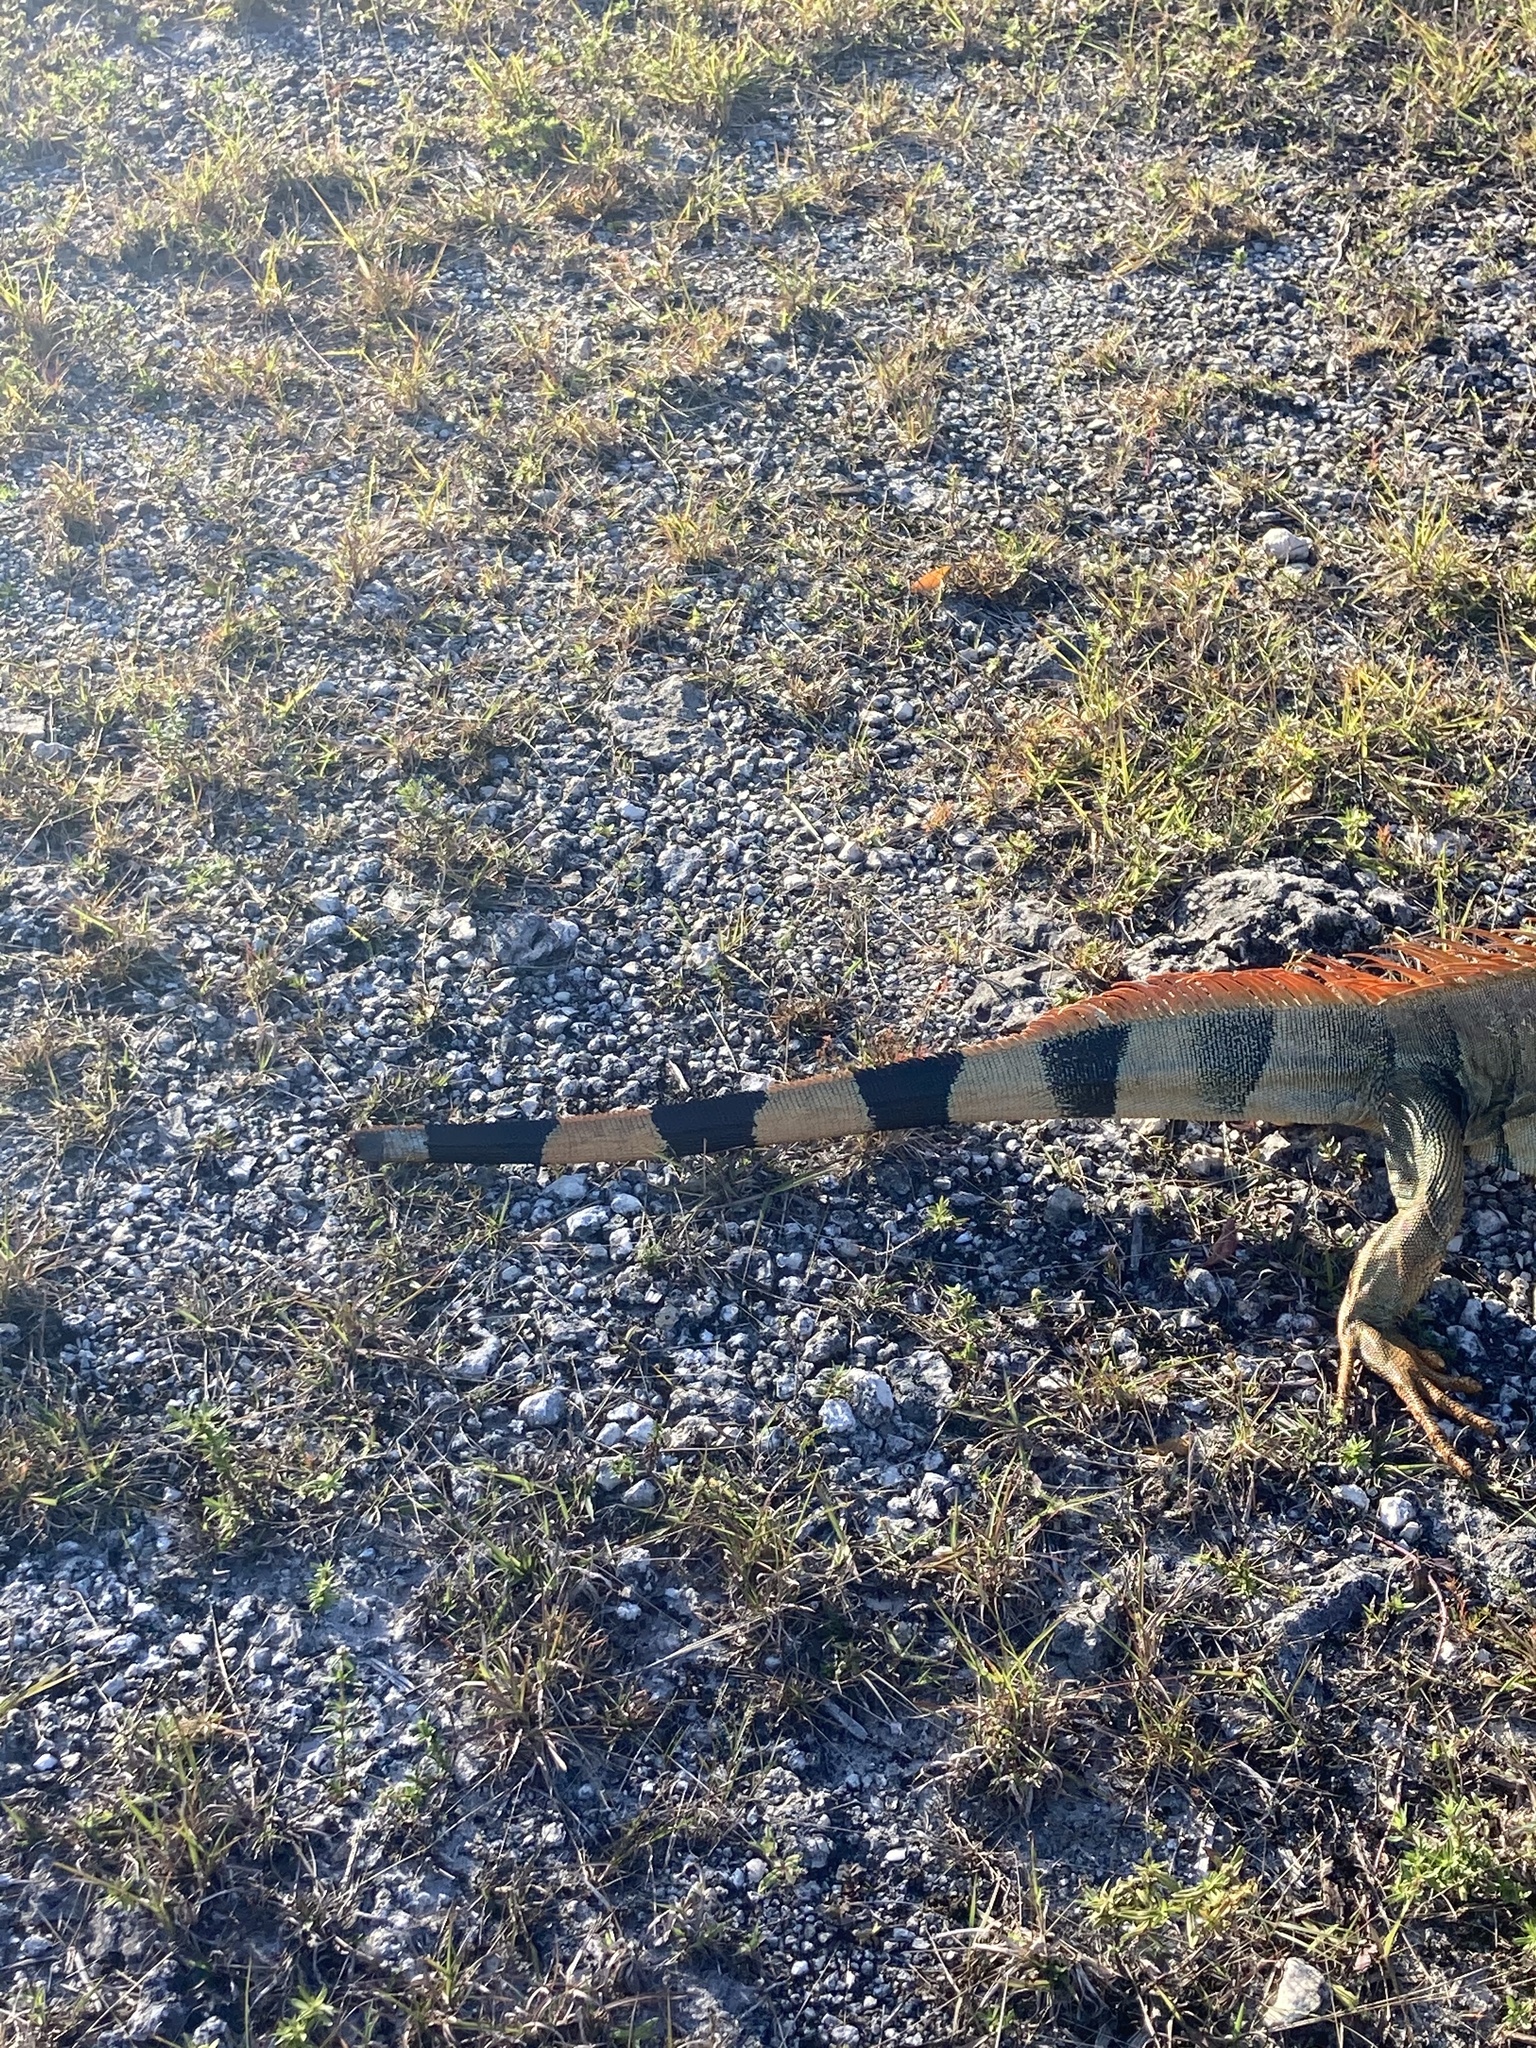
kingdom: Animalia
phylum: Chordata
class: Squamata
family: Iguanidae
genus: Iguana
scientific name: Iguana iguana
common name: Green iguana
